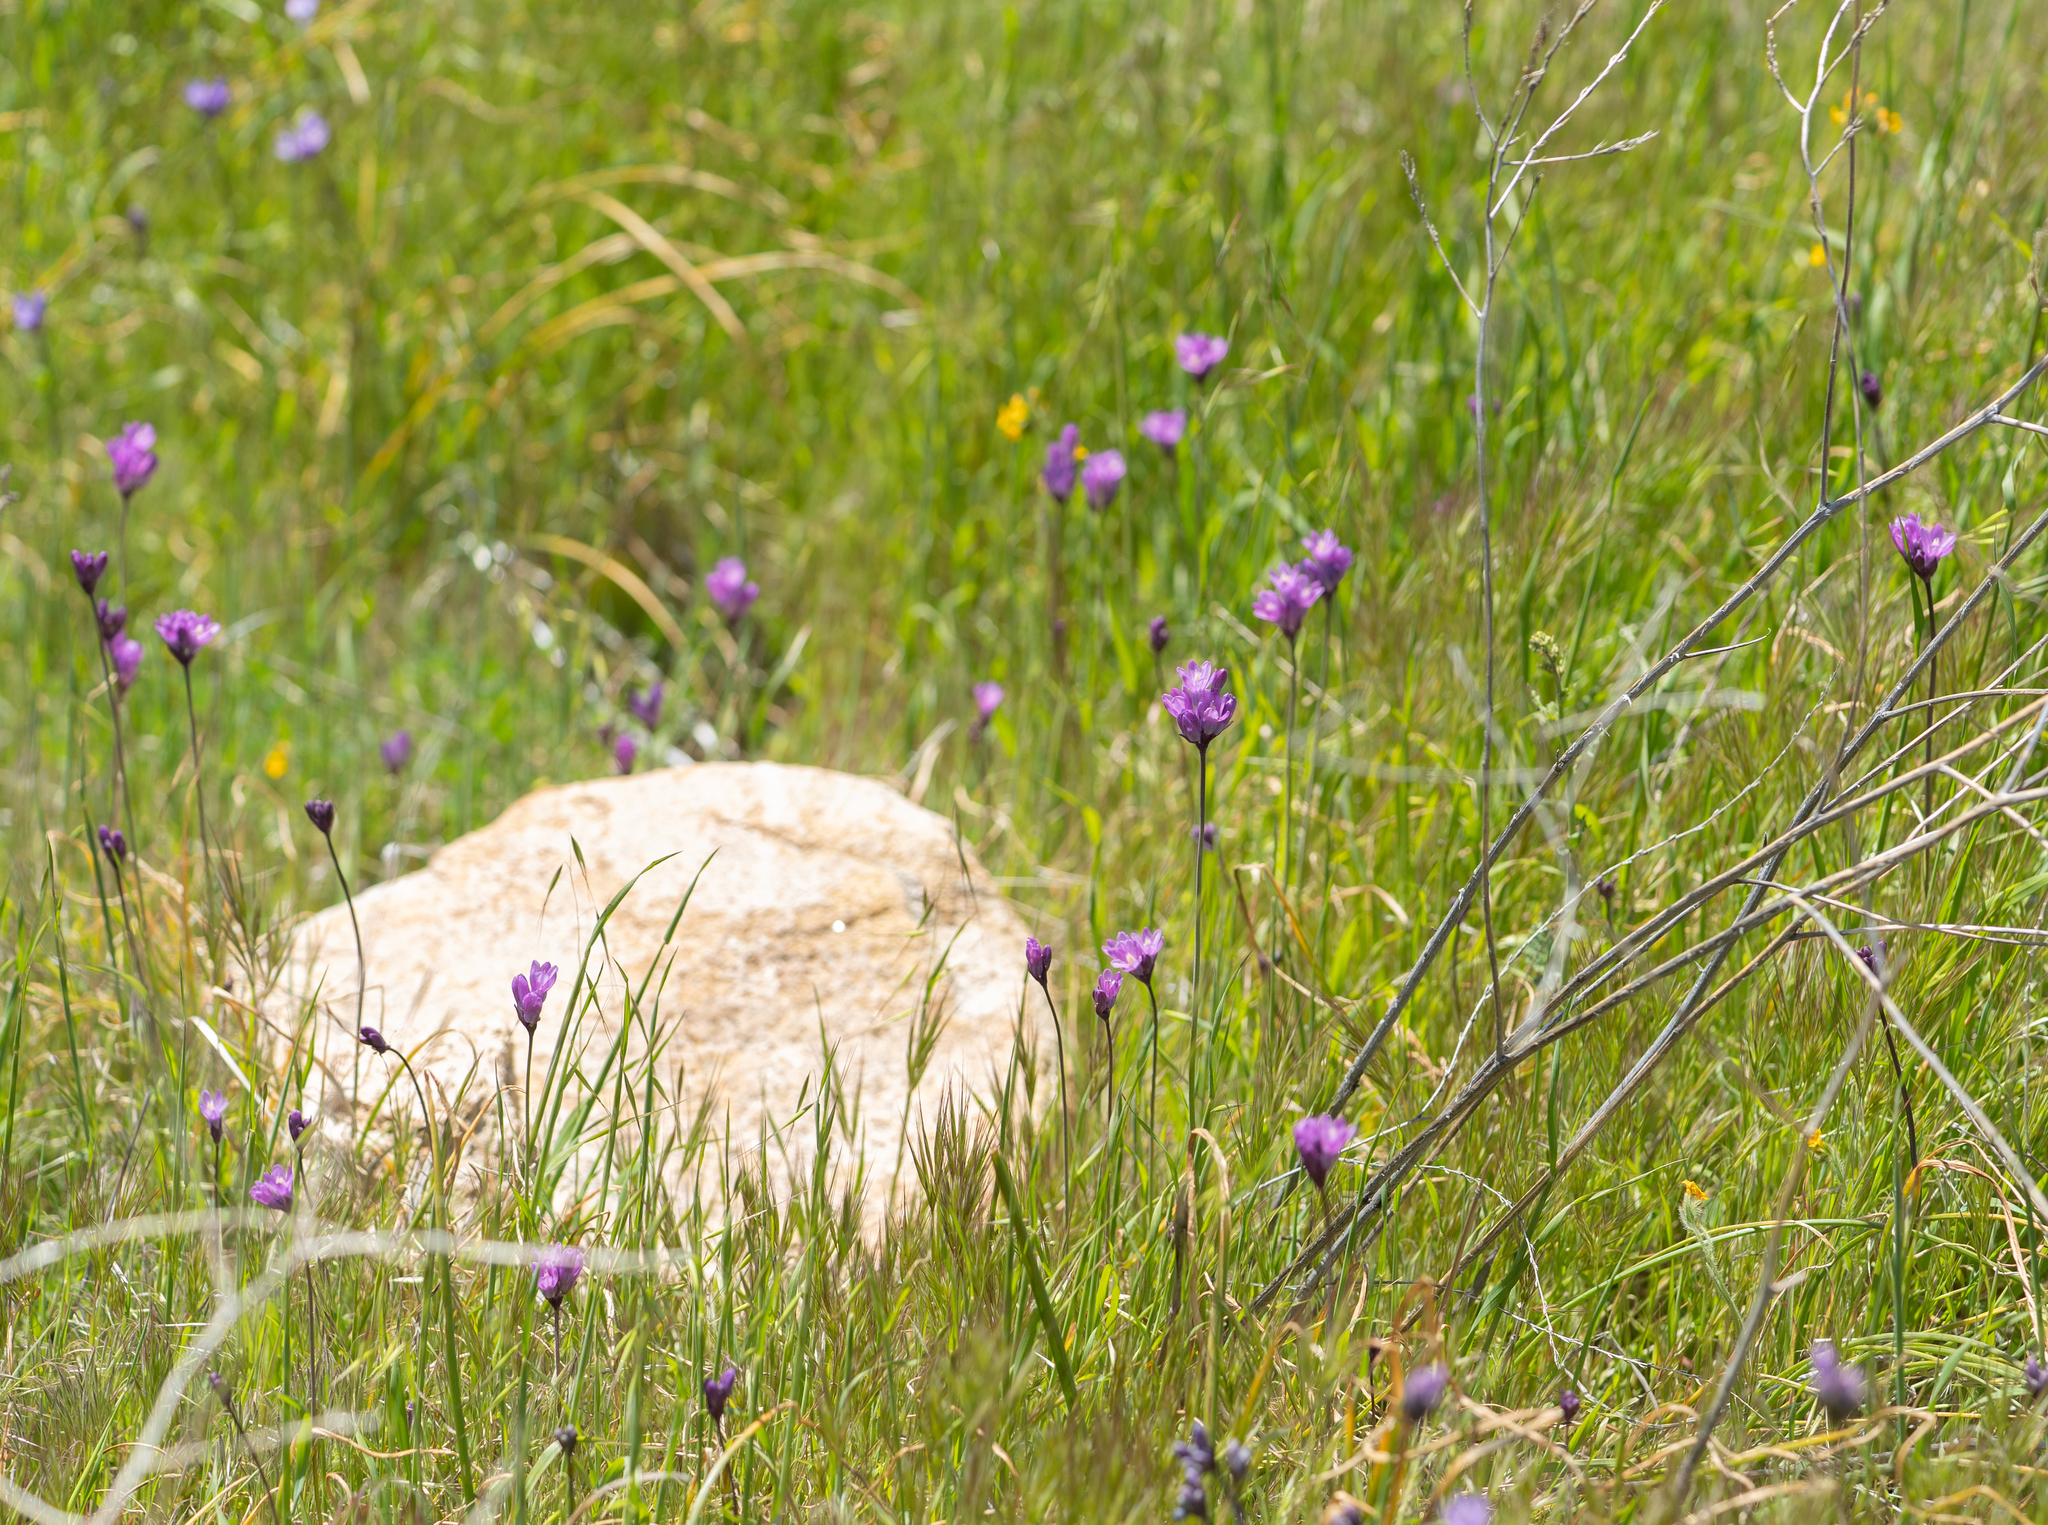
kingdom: Plantae
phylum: Tracheophyta
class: Liliopsida
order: Asparagales
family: Asparagaceae
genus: Dipterostemon
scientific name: Dipterostemon capitatus
